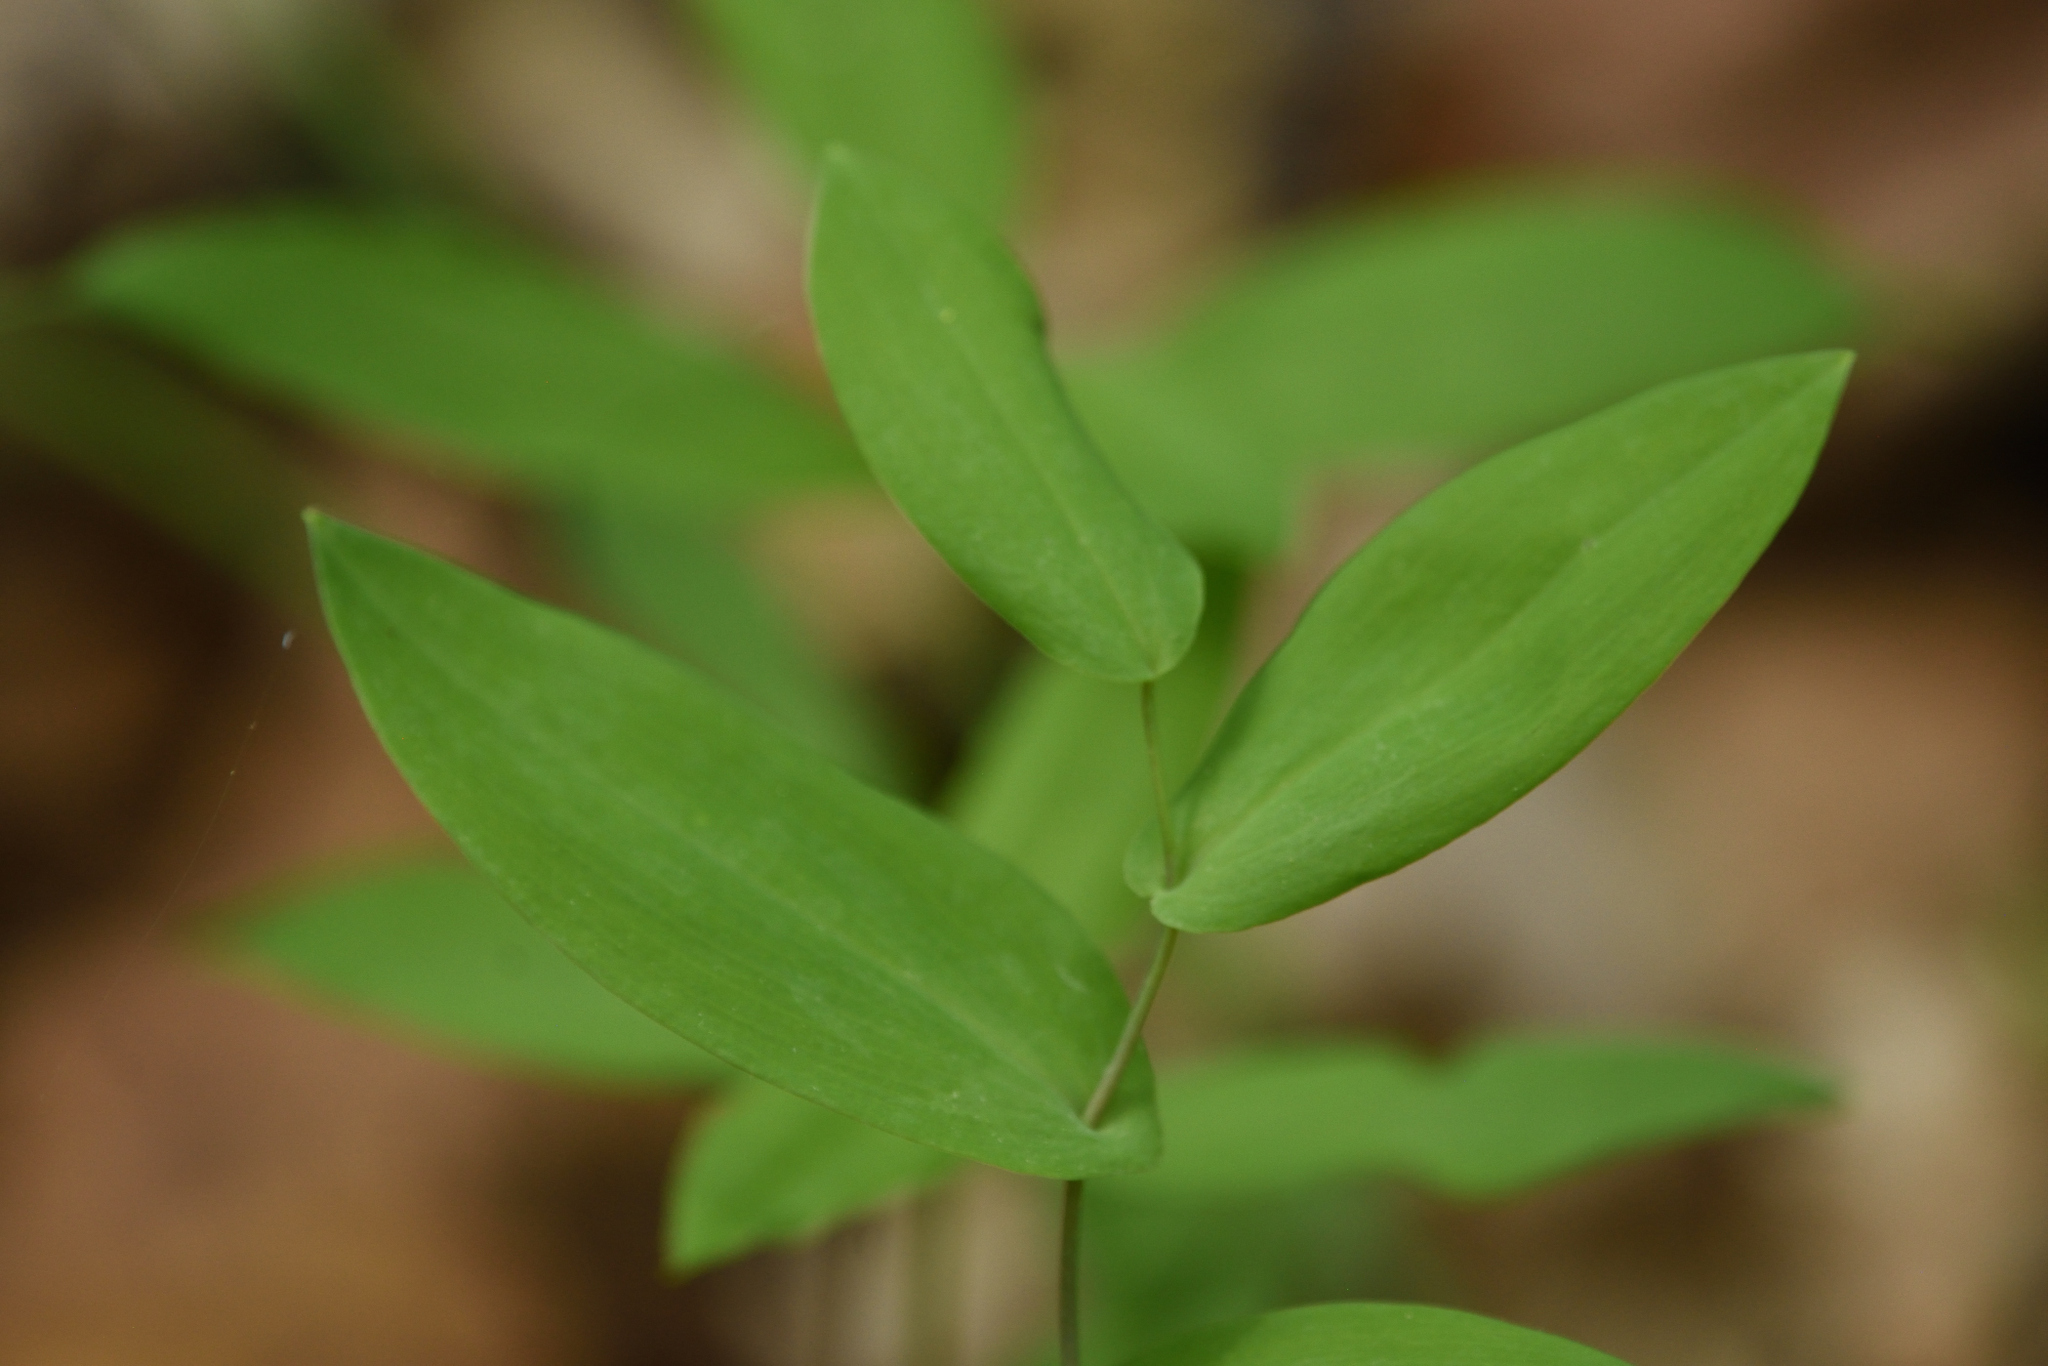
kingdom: Plantae
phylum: Tracheophyta
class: Liliopsida
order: Liliales
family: Colchicaceae
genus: Uvularia
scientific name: Uvularia perfoliata
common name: Perfoliate bellwort
